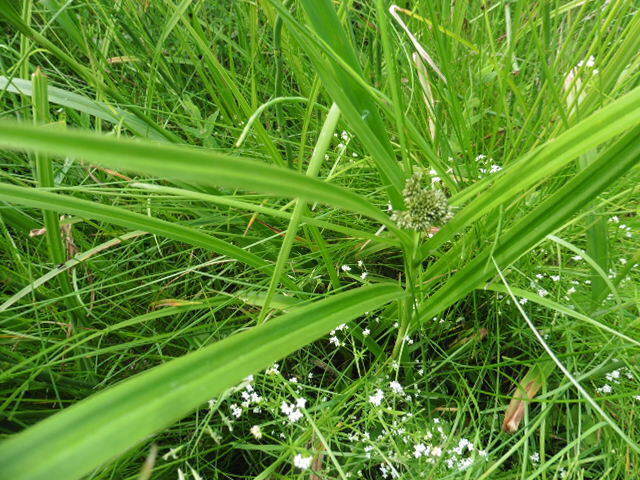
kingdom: Plantae
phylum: Tracheophyta
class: Liliopsida
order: Poales
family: Cyperaceae
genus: Scirpus
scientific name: Scirpus sylvaticus
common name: Wood club-rush
